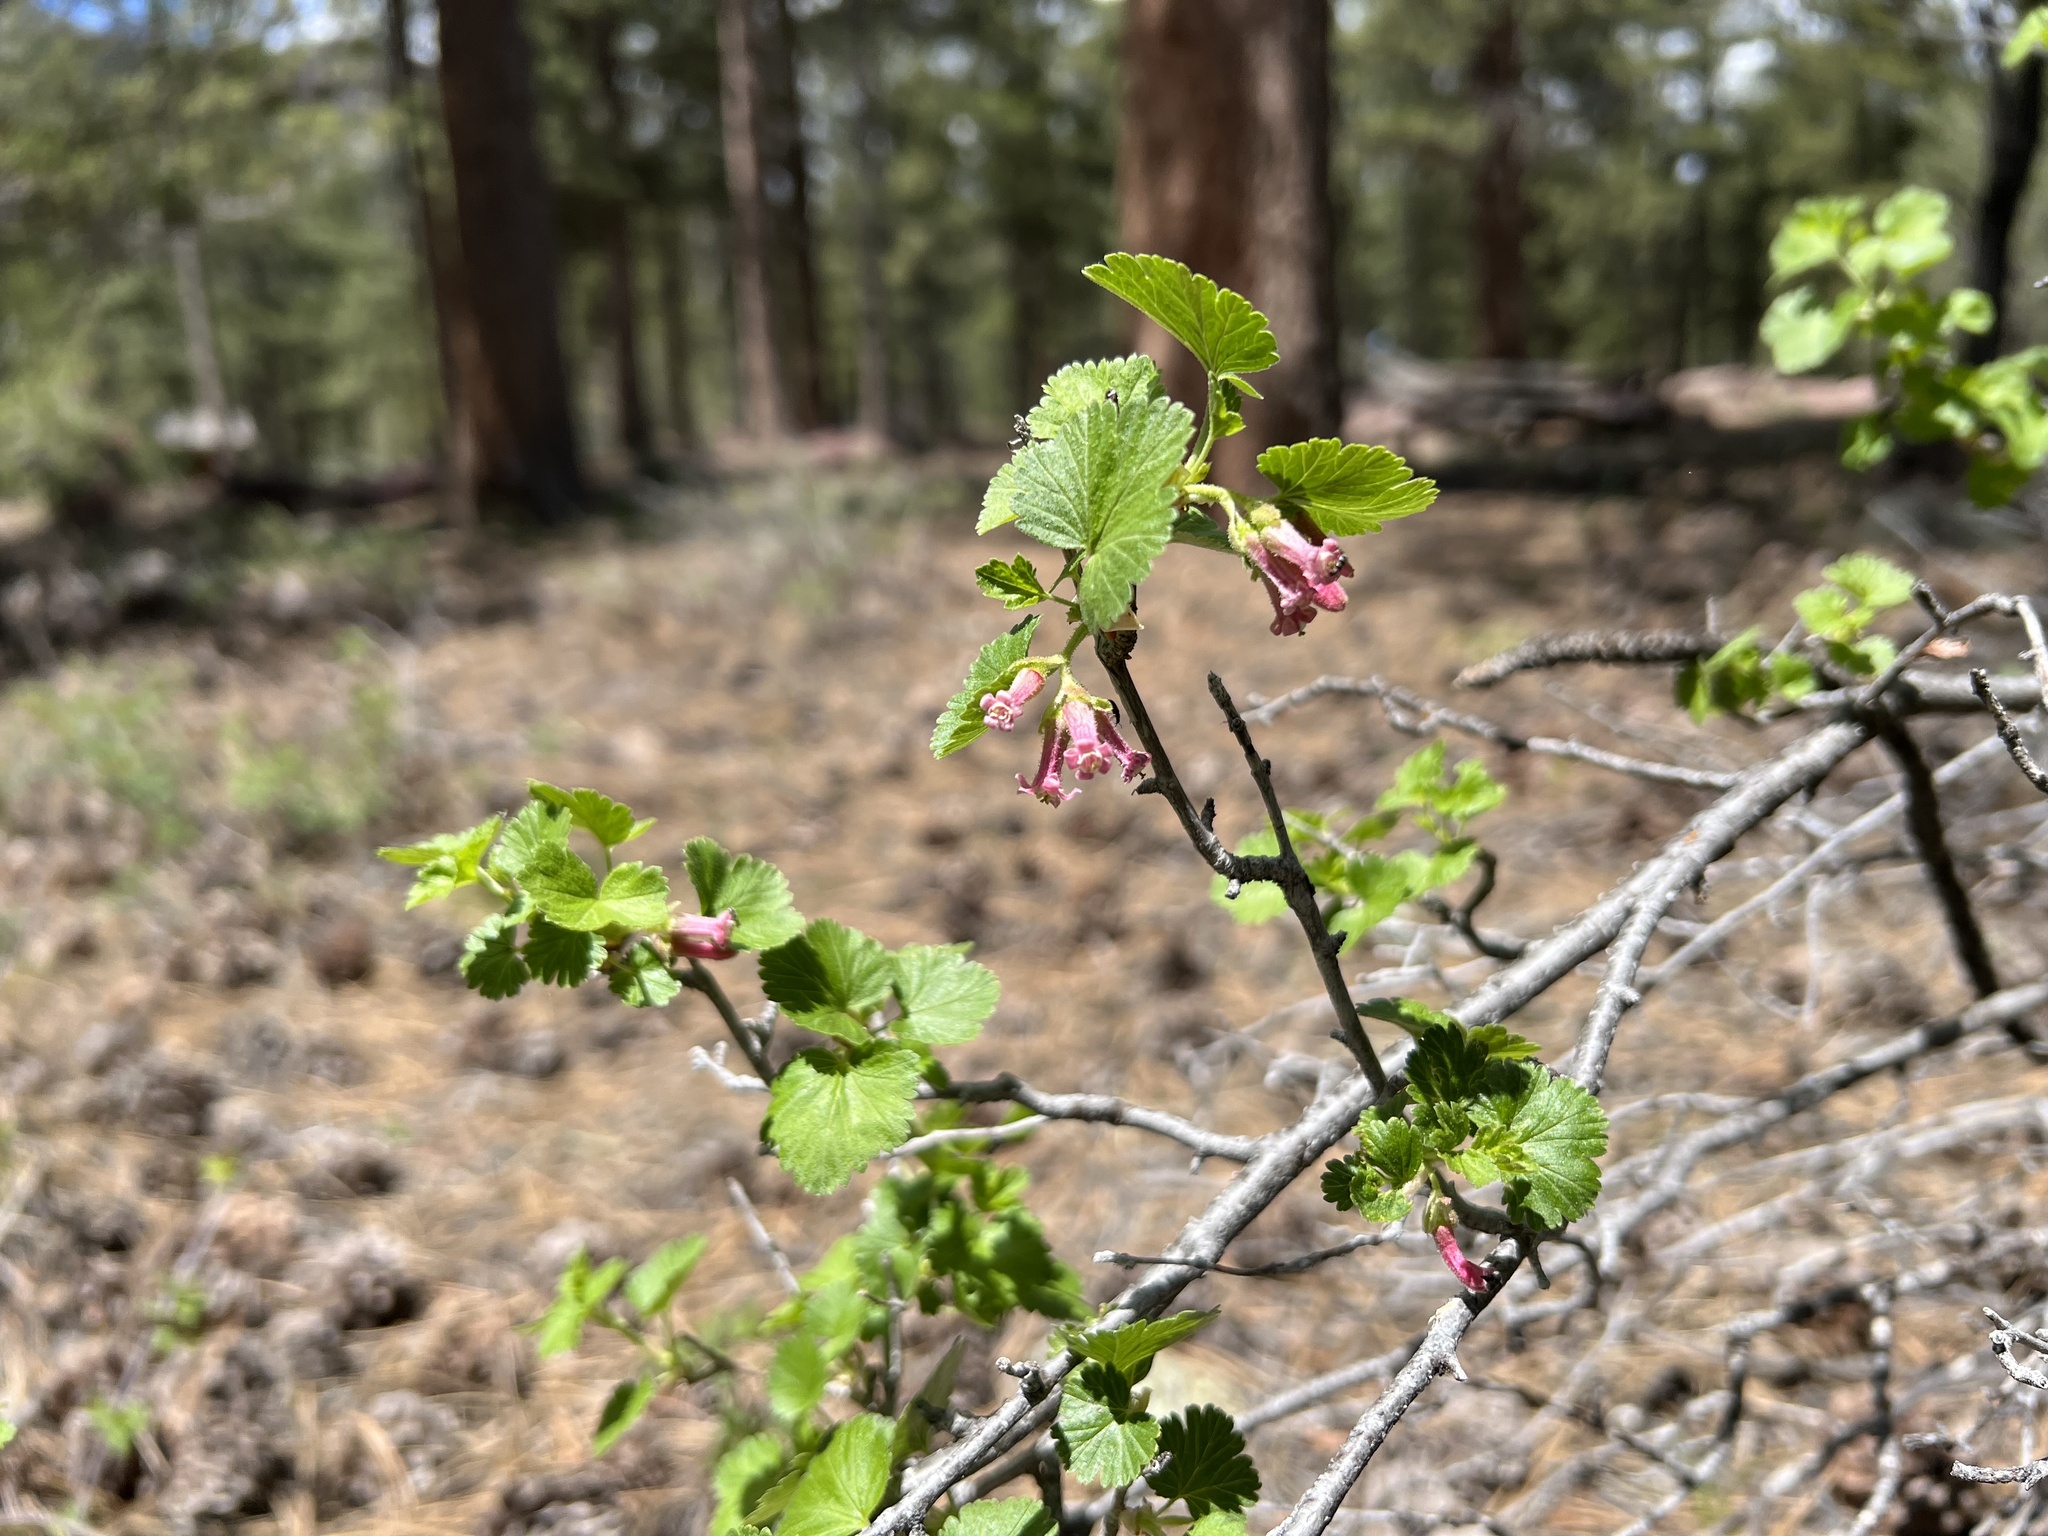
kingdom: Plantae
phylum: Tracheophyta
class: Magnoliopsida
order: Saxifragales
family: Grossulariaceae
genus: Ribes
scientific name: Ribes cereum
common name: Wax currant
